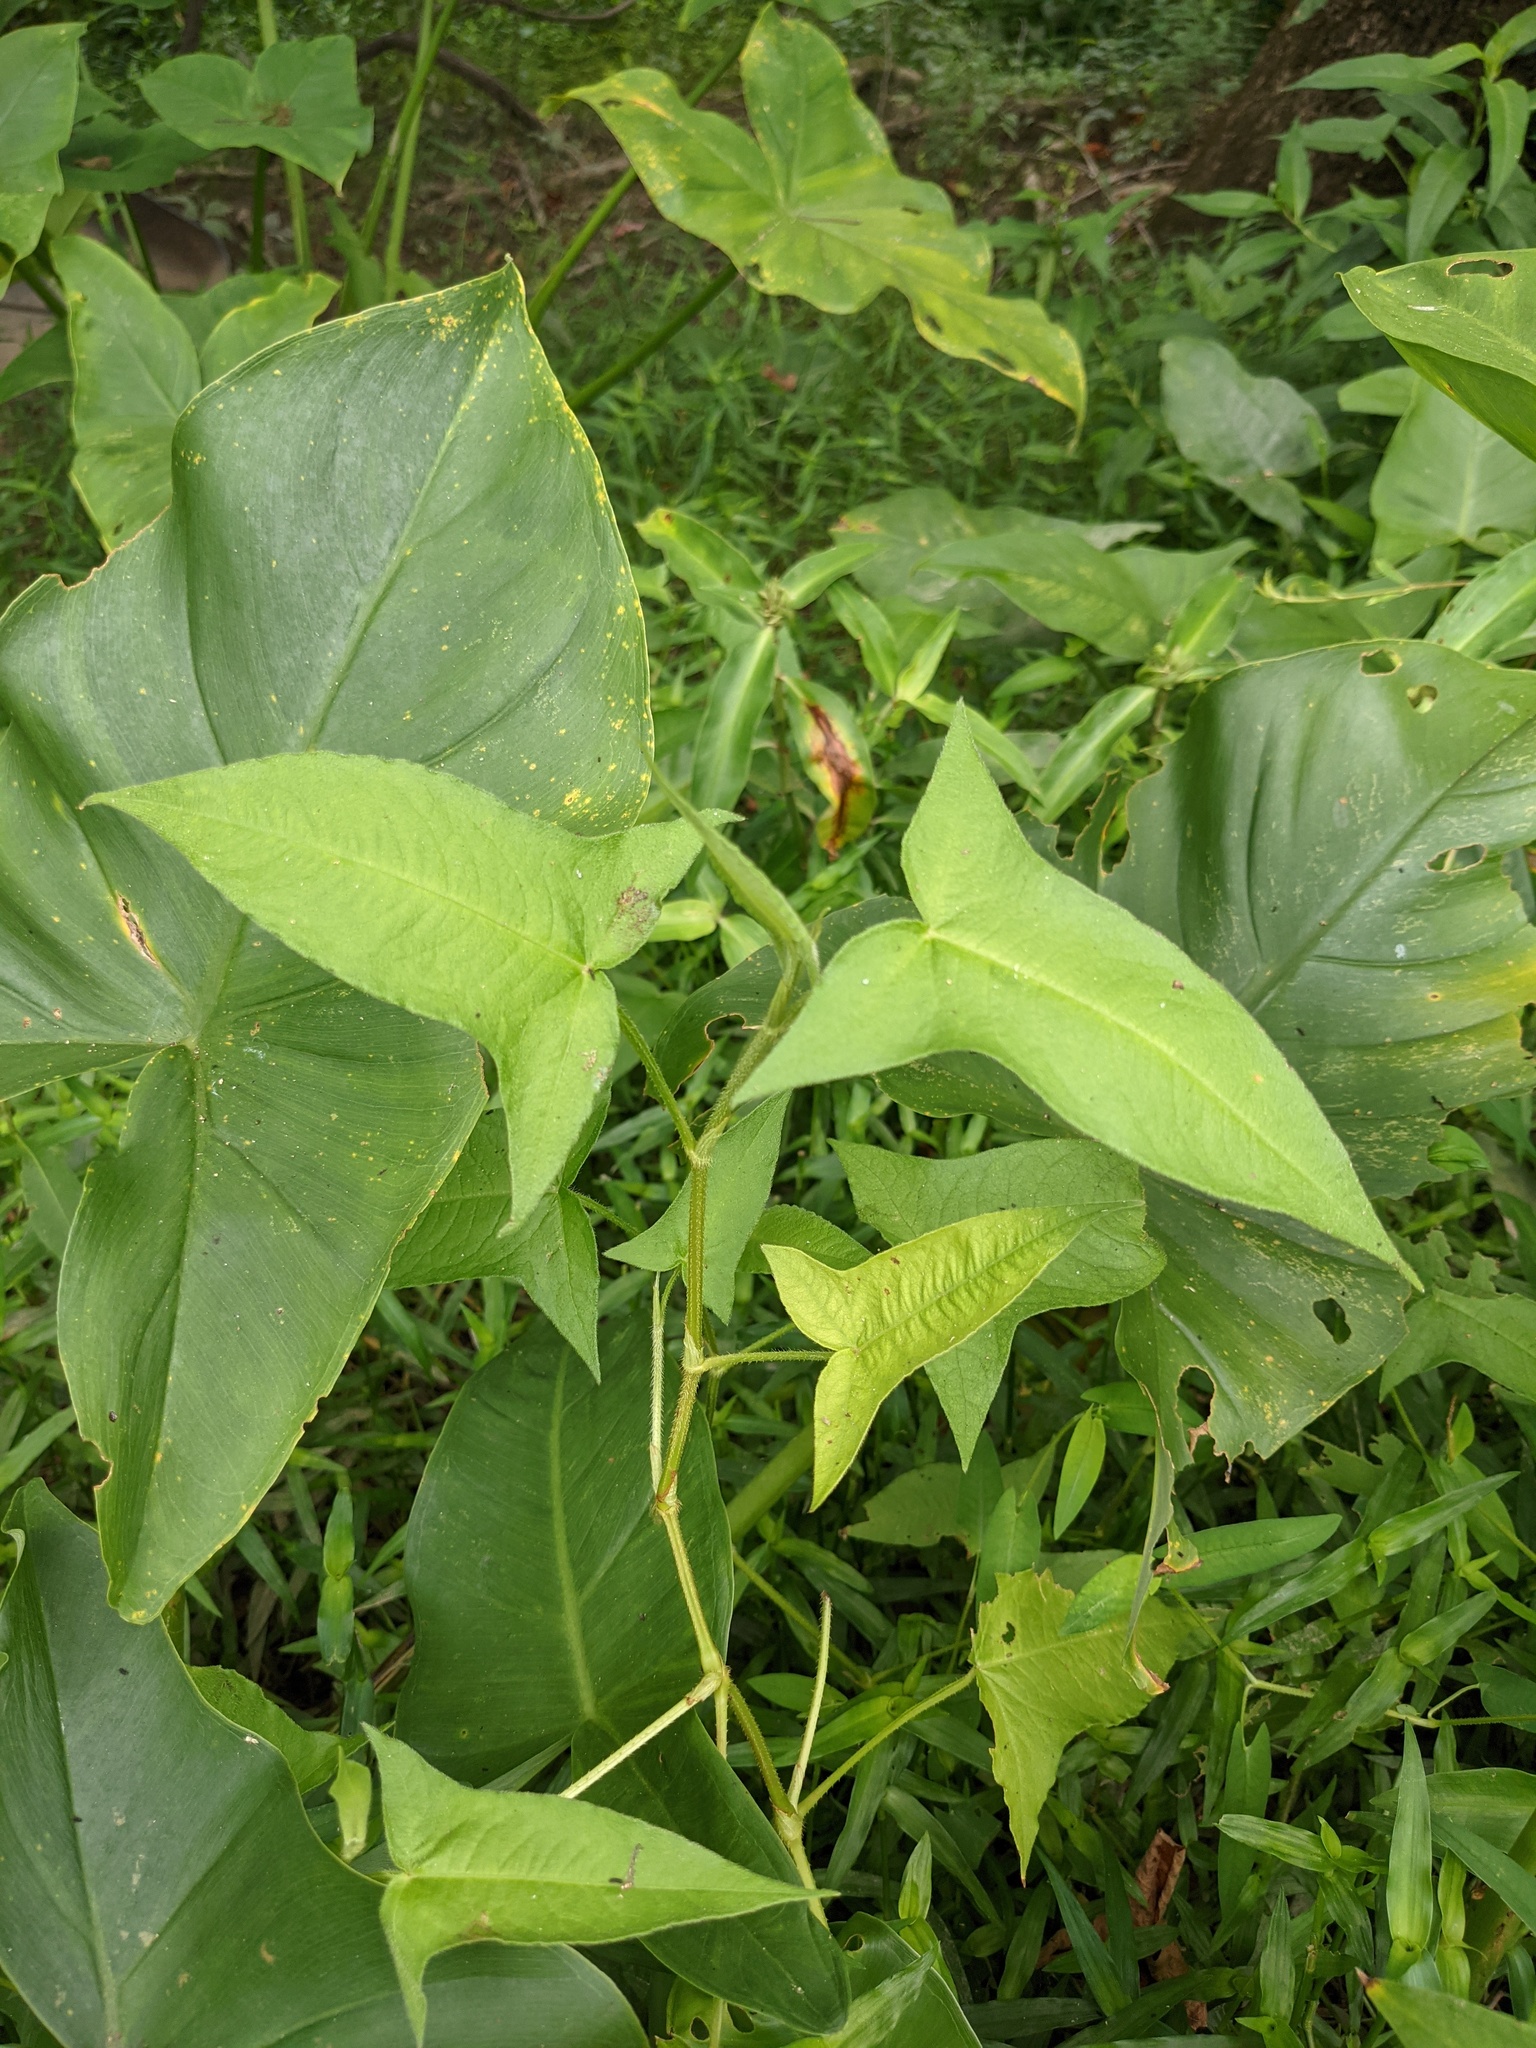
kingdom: Plantae
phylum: Tracheophyta
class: Magnoliopsida
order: Caryophyllales
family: Polygonaceae
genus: Persicaria
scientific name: Persicaria arifolia
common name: Halberd-leaved tear-thumb
